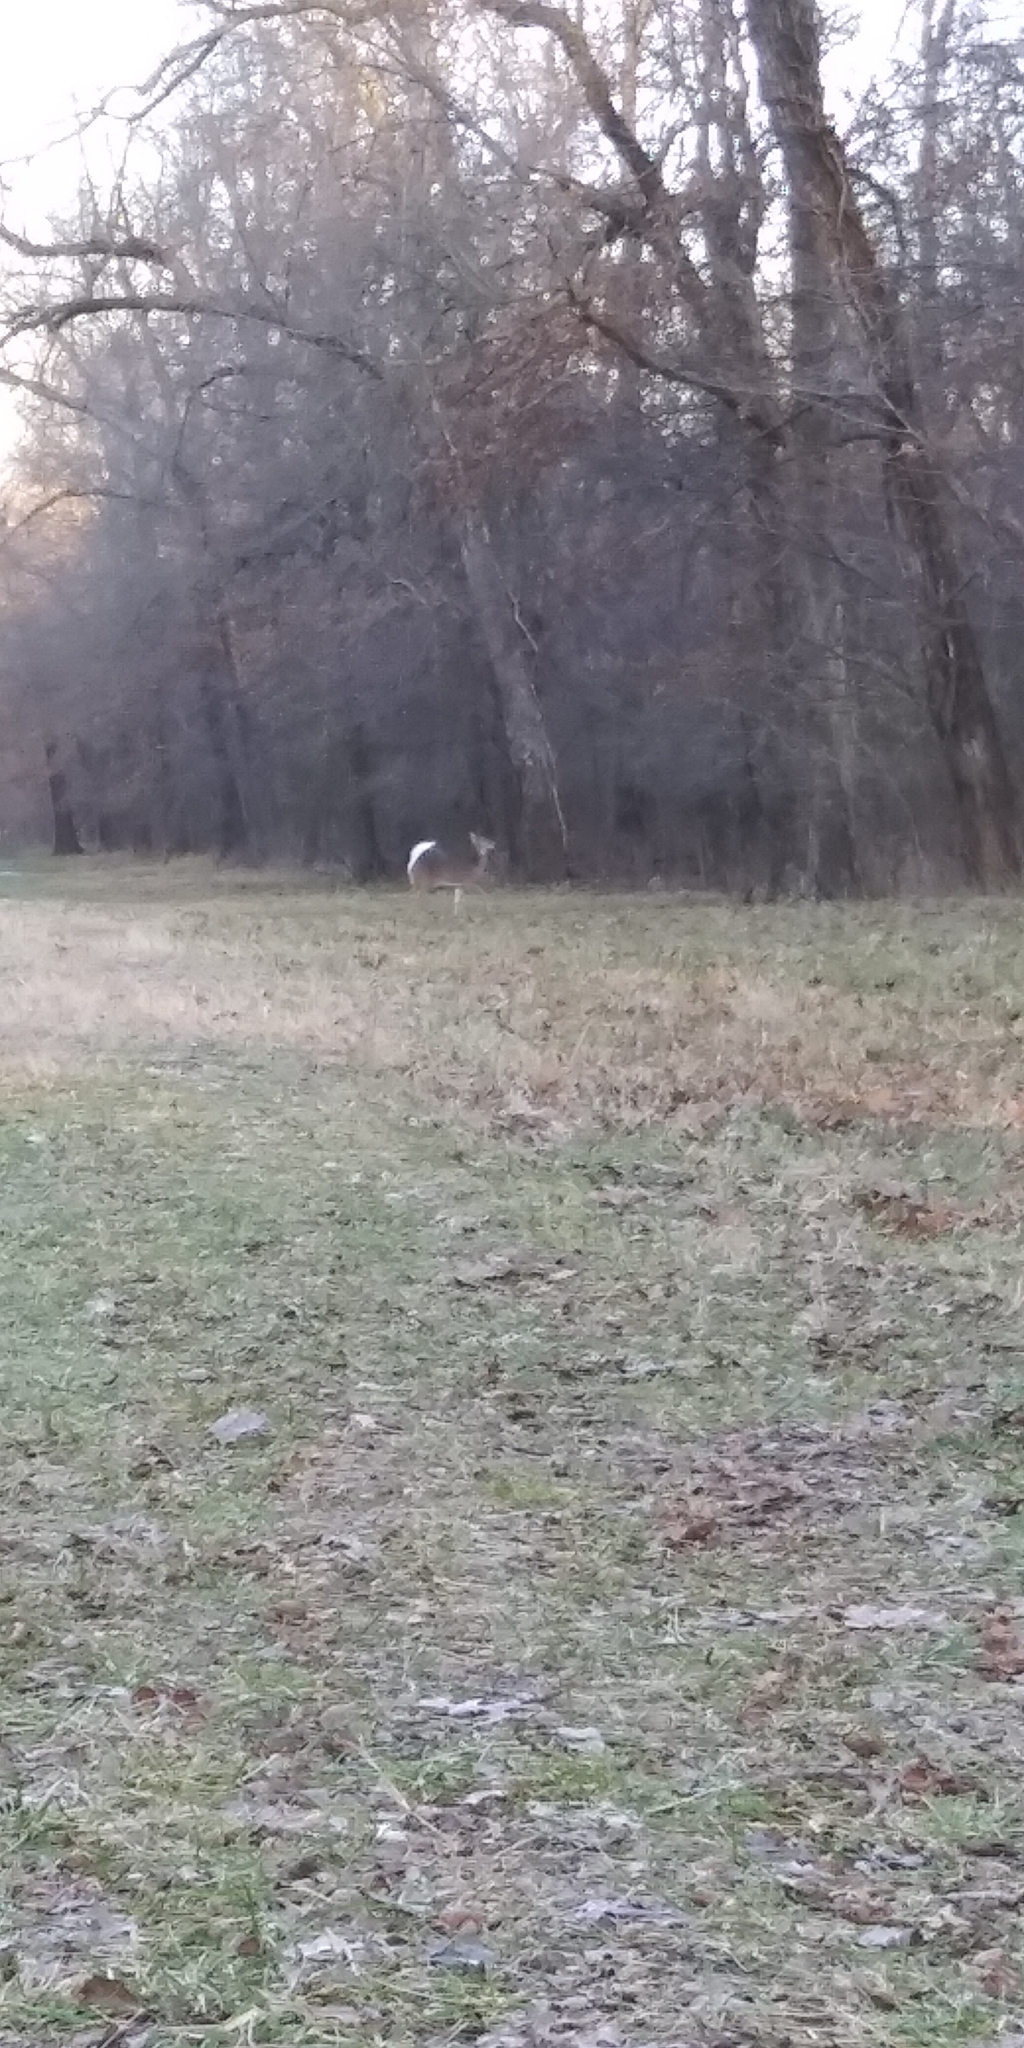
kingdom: Animalia
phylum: Chordata
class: Mammalia
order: Artiodactyla
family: Cervidae
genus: Odocoileus
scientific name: Odocoileus virginianus
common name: White-tailed deer
